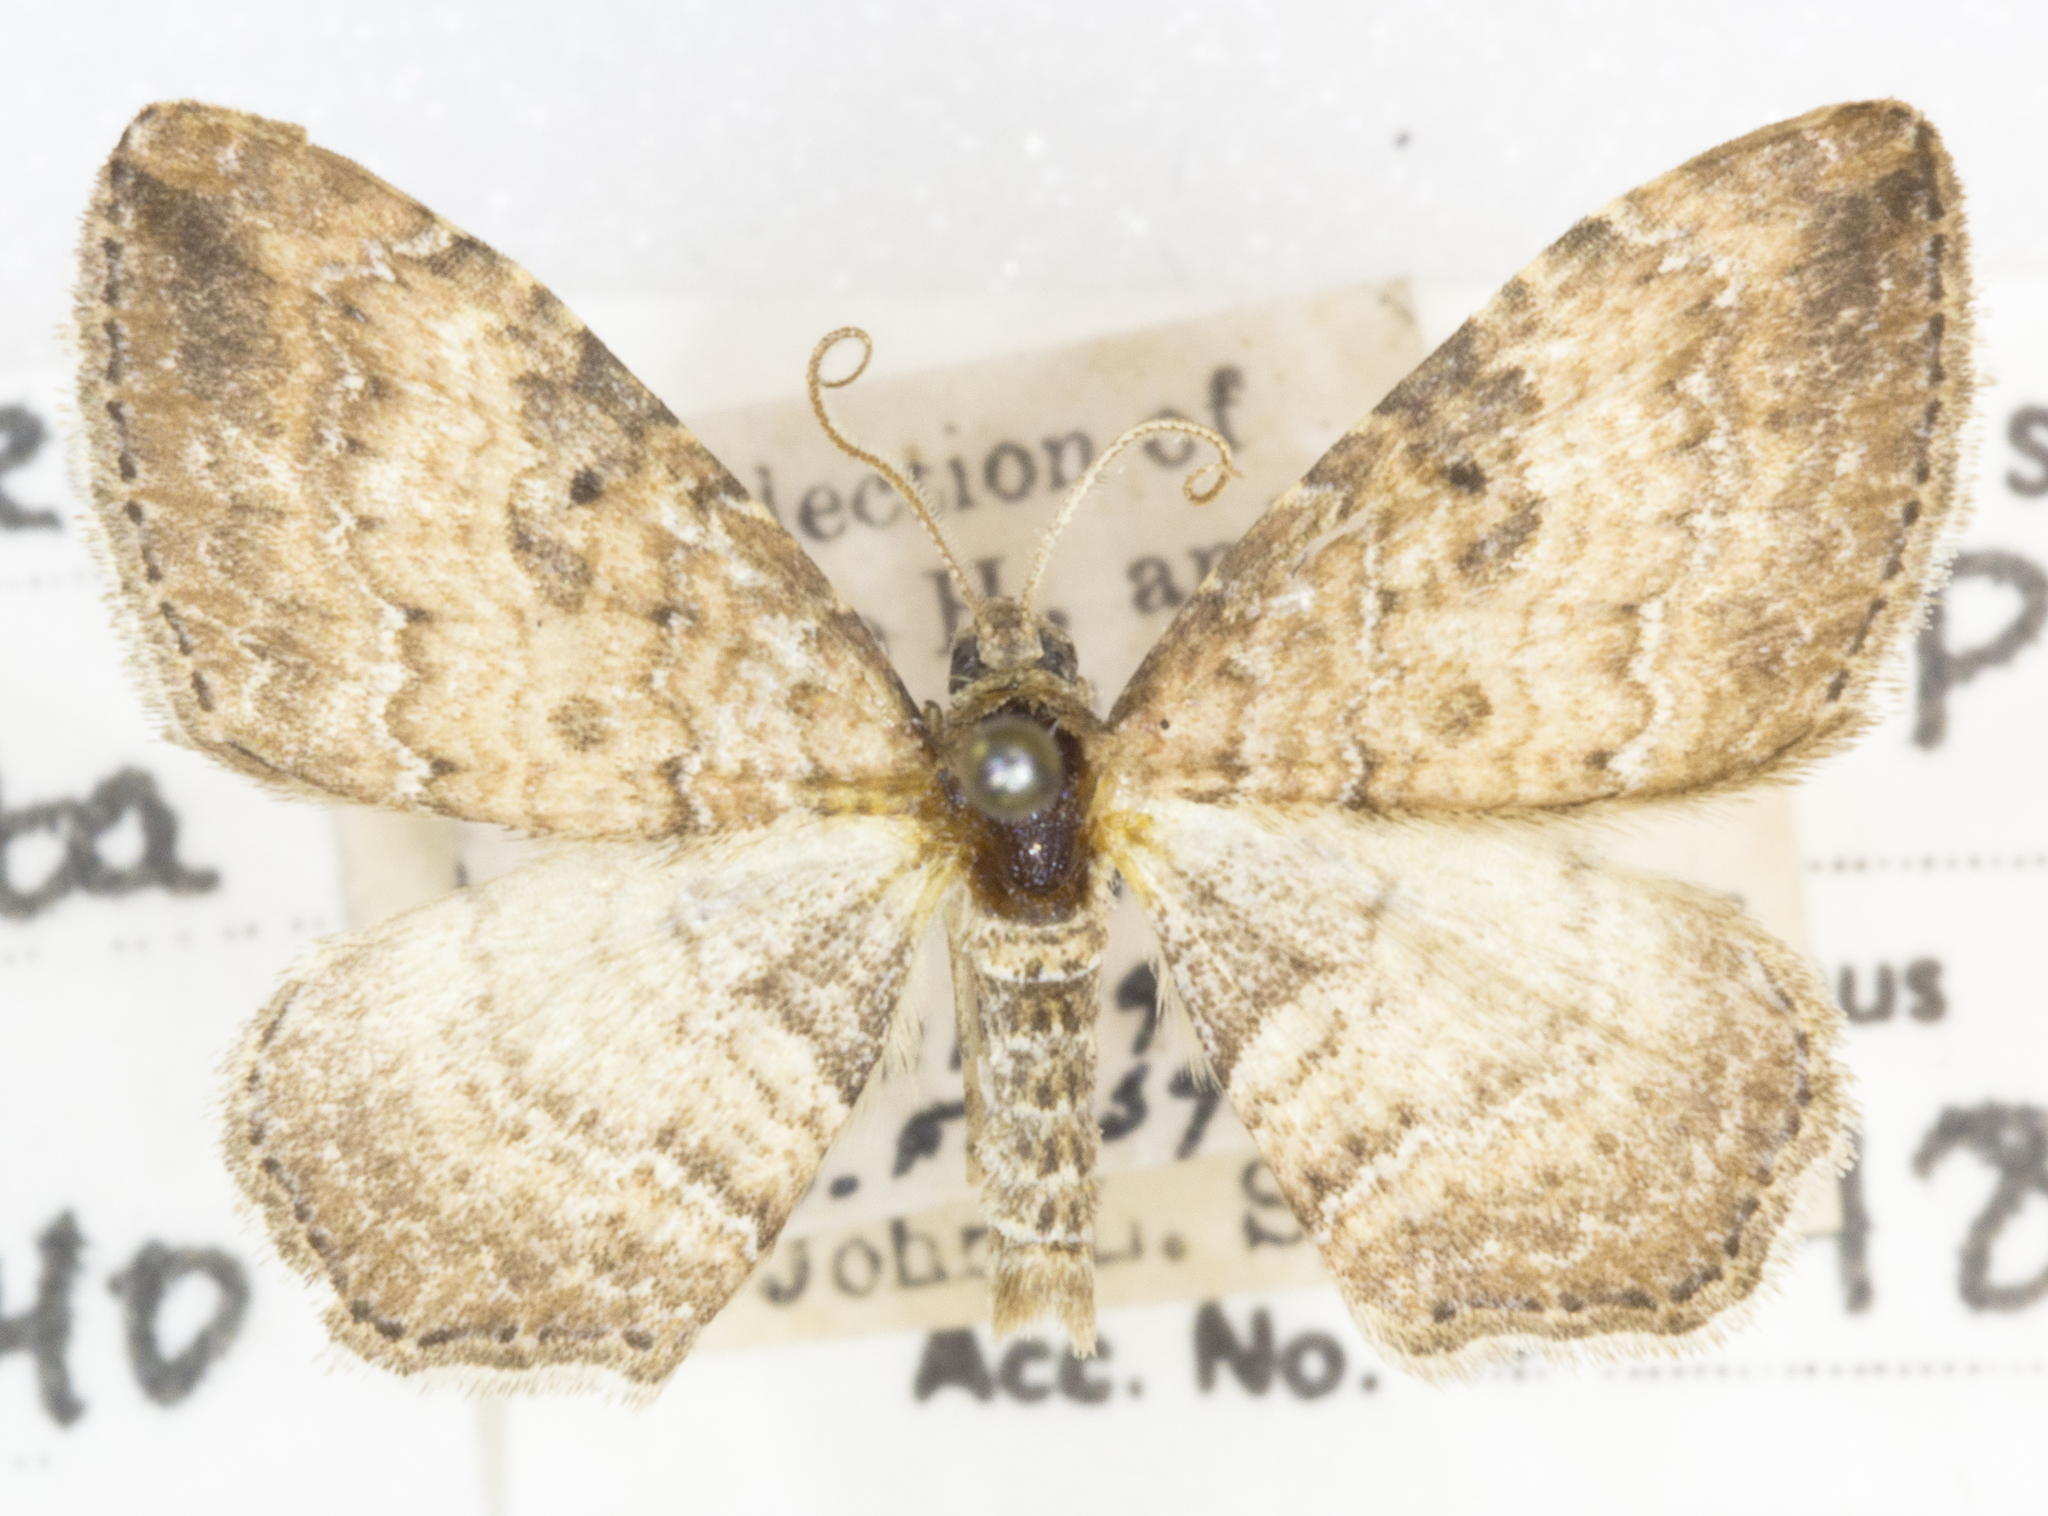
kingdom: Animalia
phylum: Arthropoda
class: Insecta
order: Lepidoptera
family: Geometridae
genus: Orthonama
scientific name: Orthonama obstipata
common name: The gem
